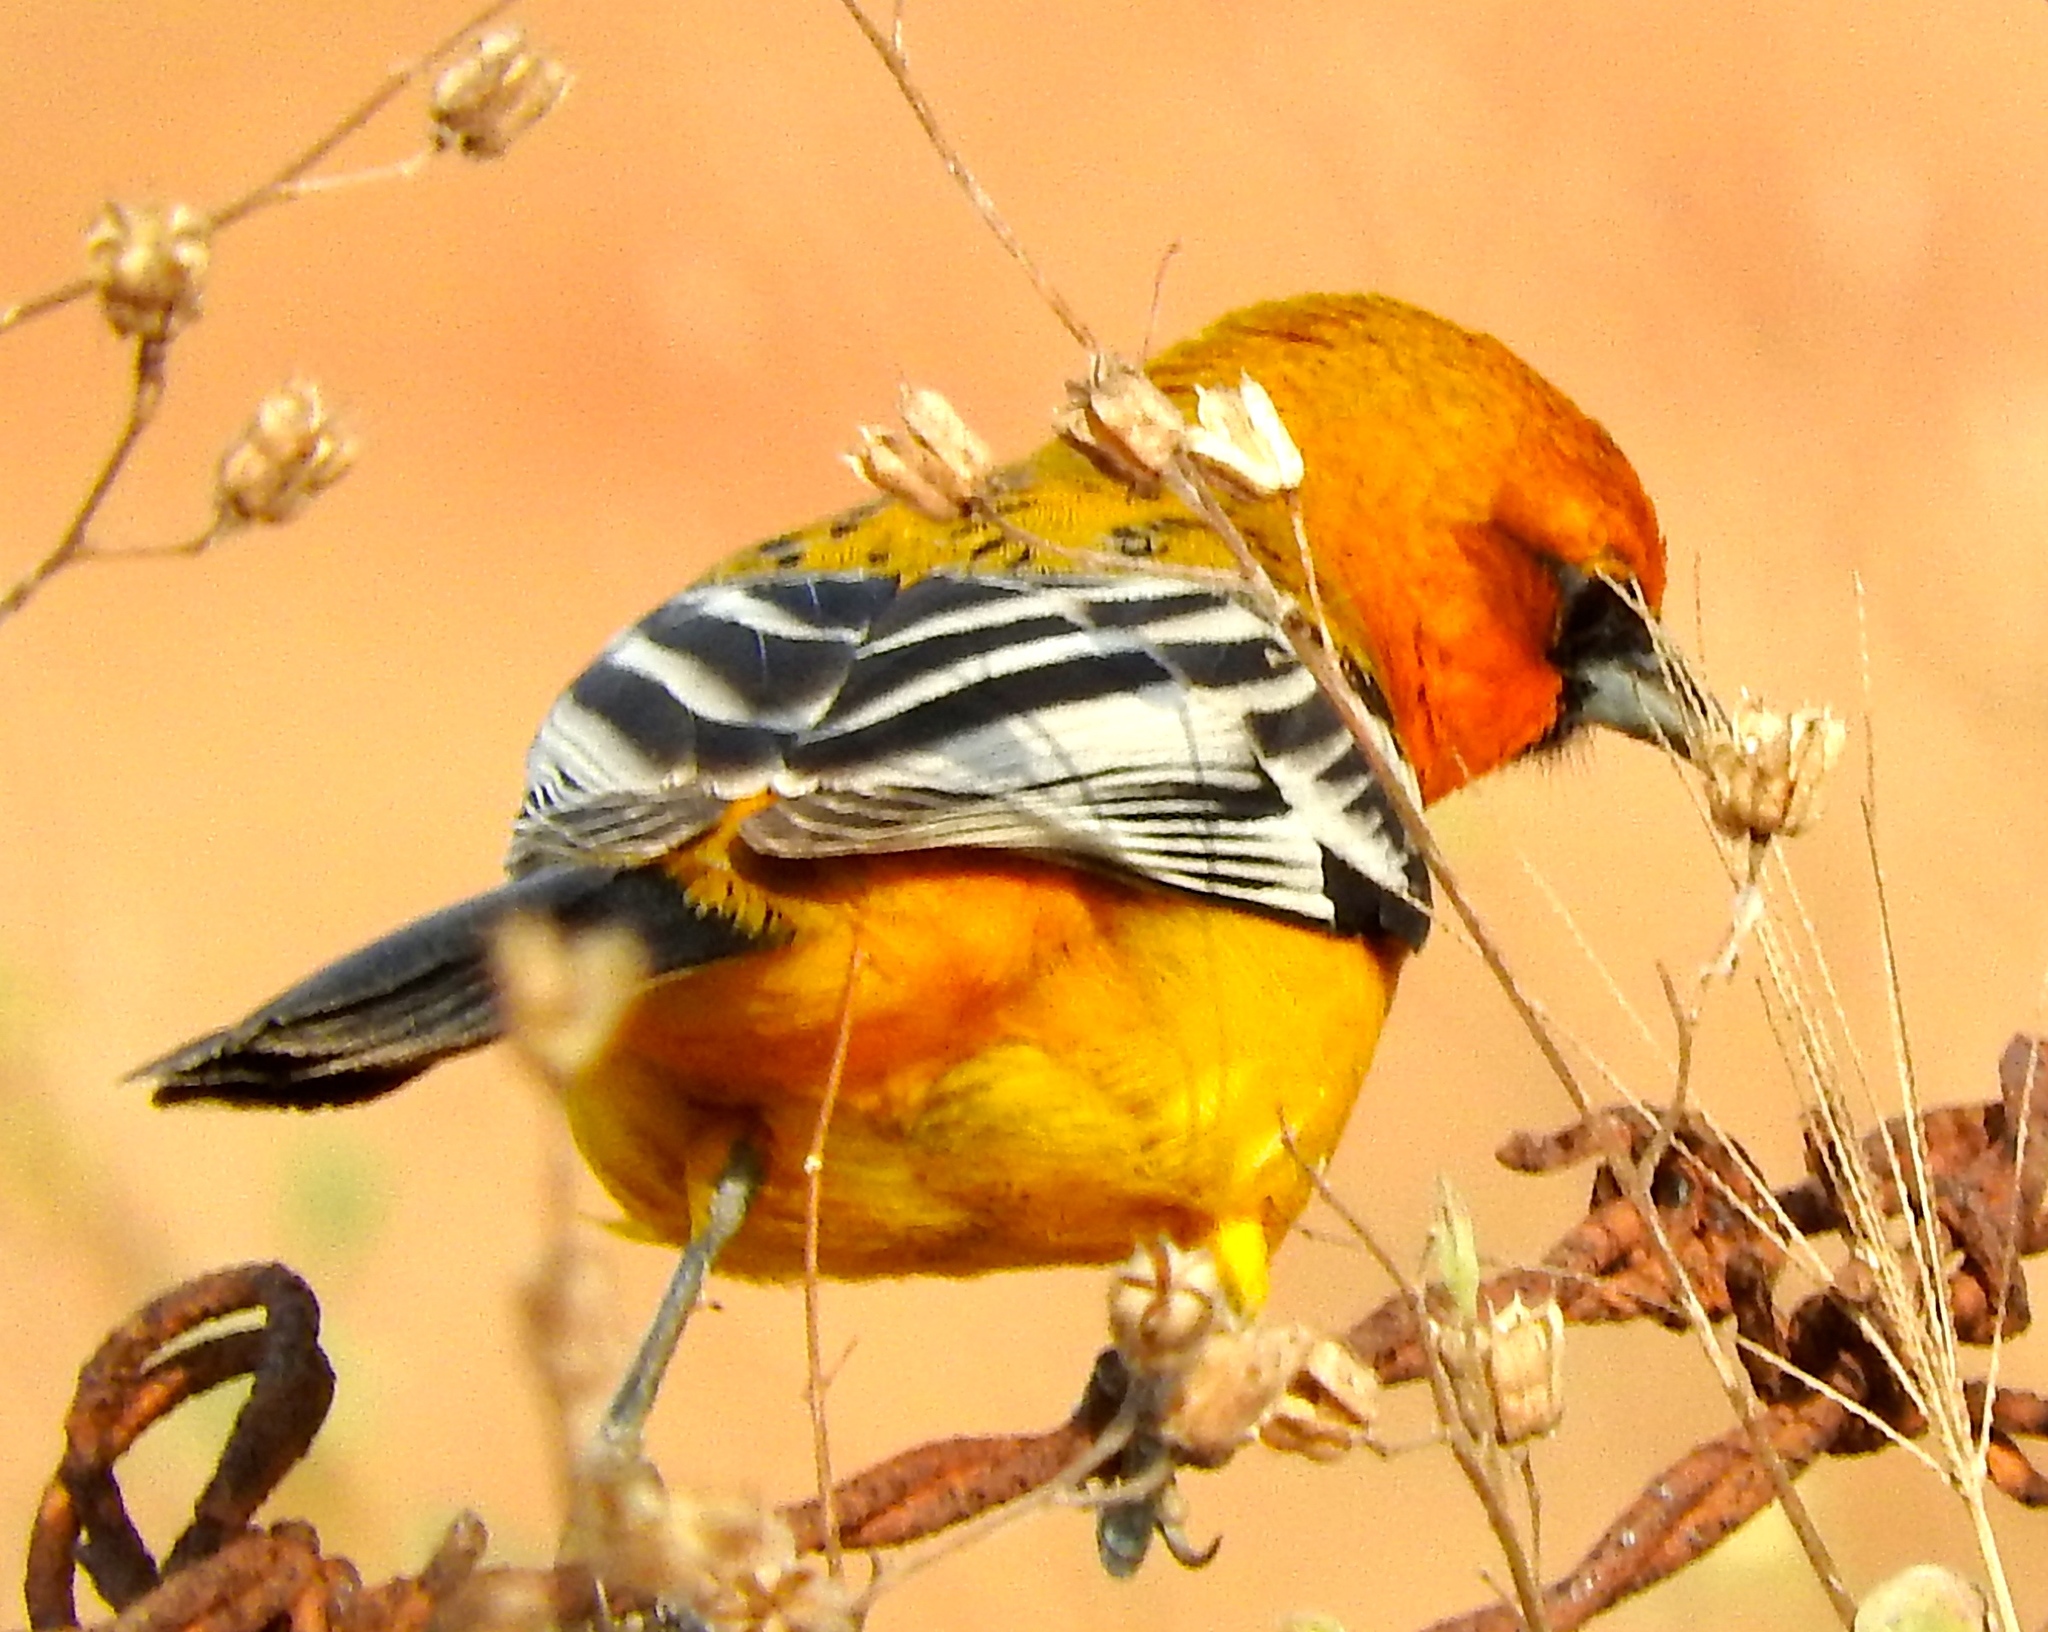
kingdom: Animalia
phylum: Chordata
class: Aves
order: Passeriformes
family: Icteridae
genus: Icterus
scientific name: Icterus pustulatus
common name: Streak-backed oriole
